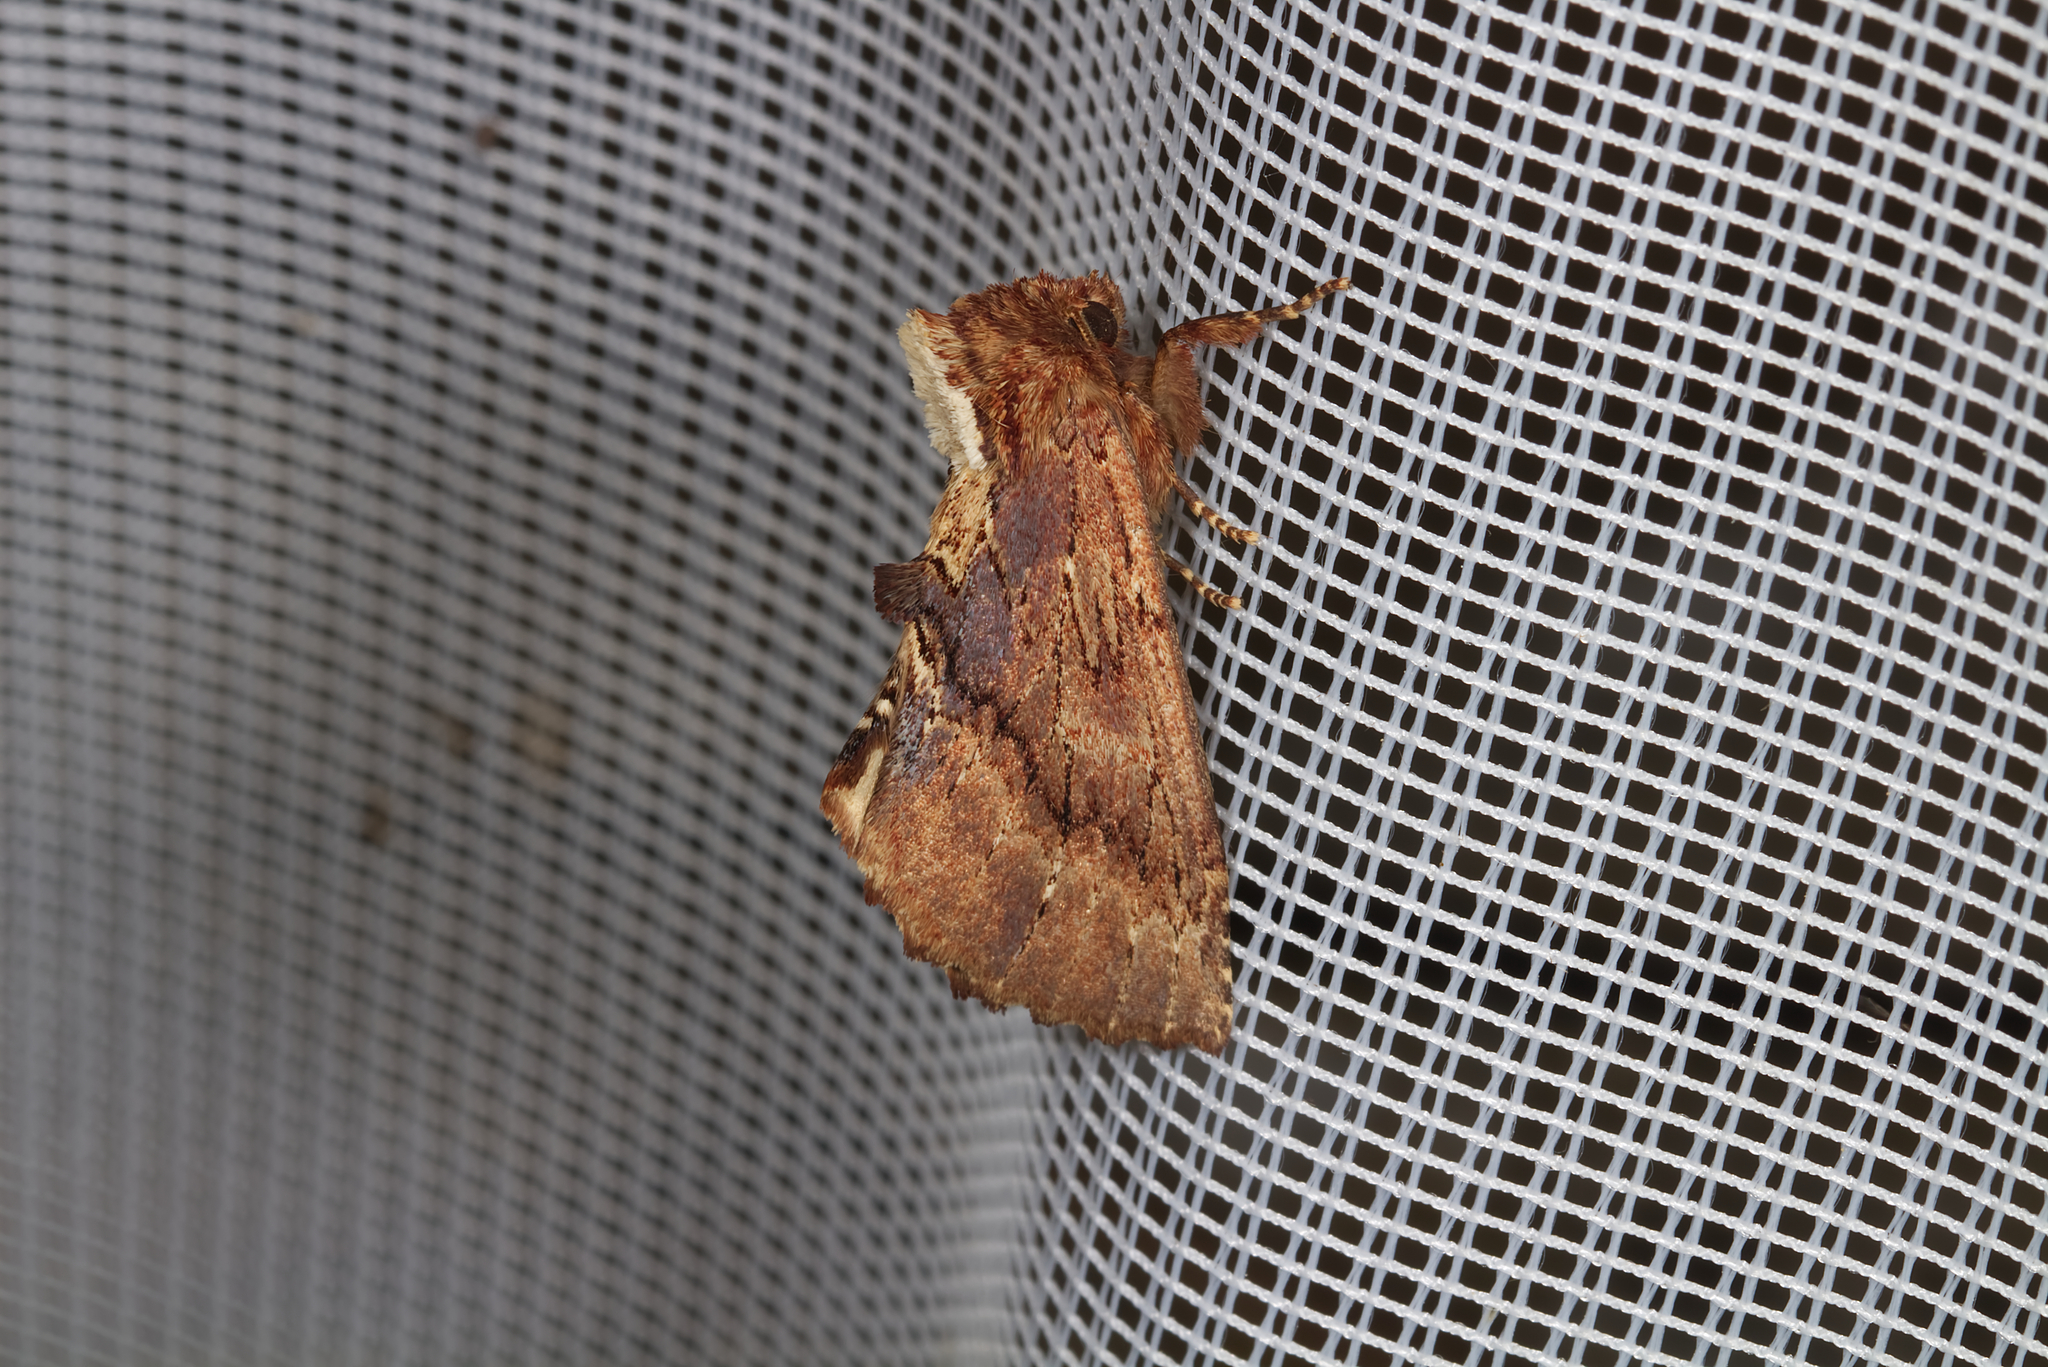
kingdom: Animalia
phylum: Arthropoda
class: Insecta
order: Lepidoptera
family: Notodontidae
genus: Ptilodon
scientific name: Ptilodon capucina
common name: Coxcomb prominent
